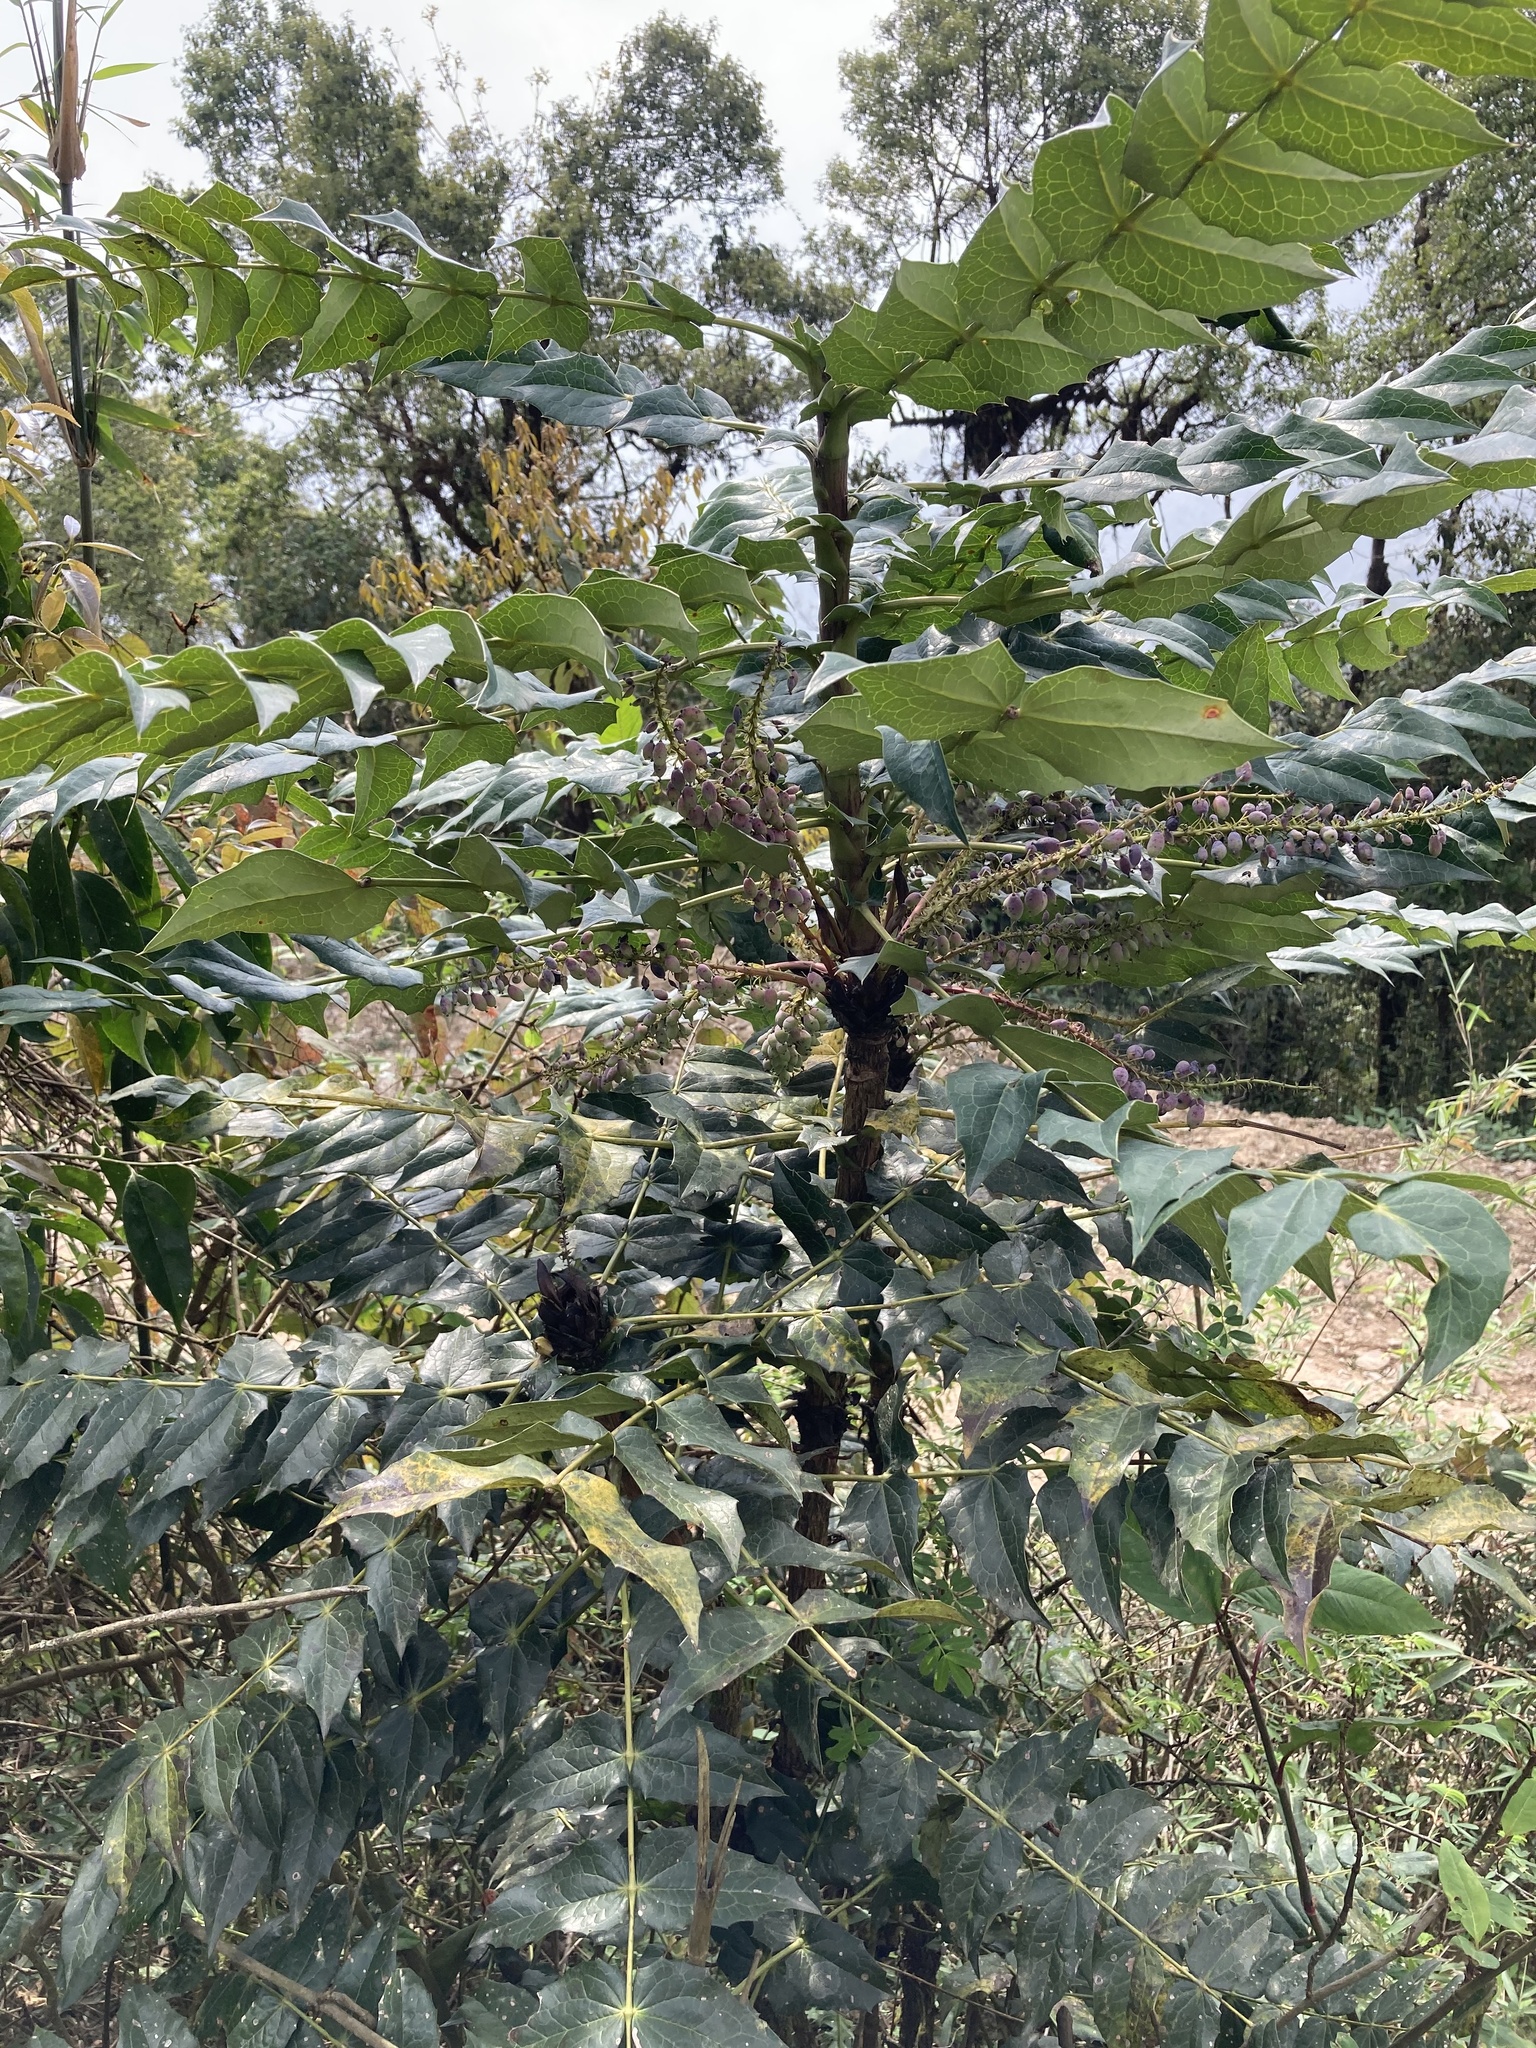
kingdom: Plantae
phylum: Tracheophyta
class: Magnoliopsida
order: Ranunculales
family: Berberidaceae
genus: Mahonia
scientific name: Mahonia napaulensis
